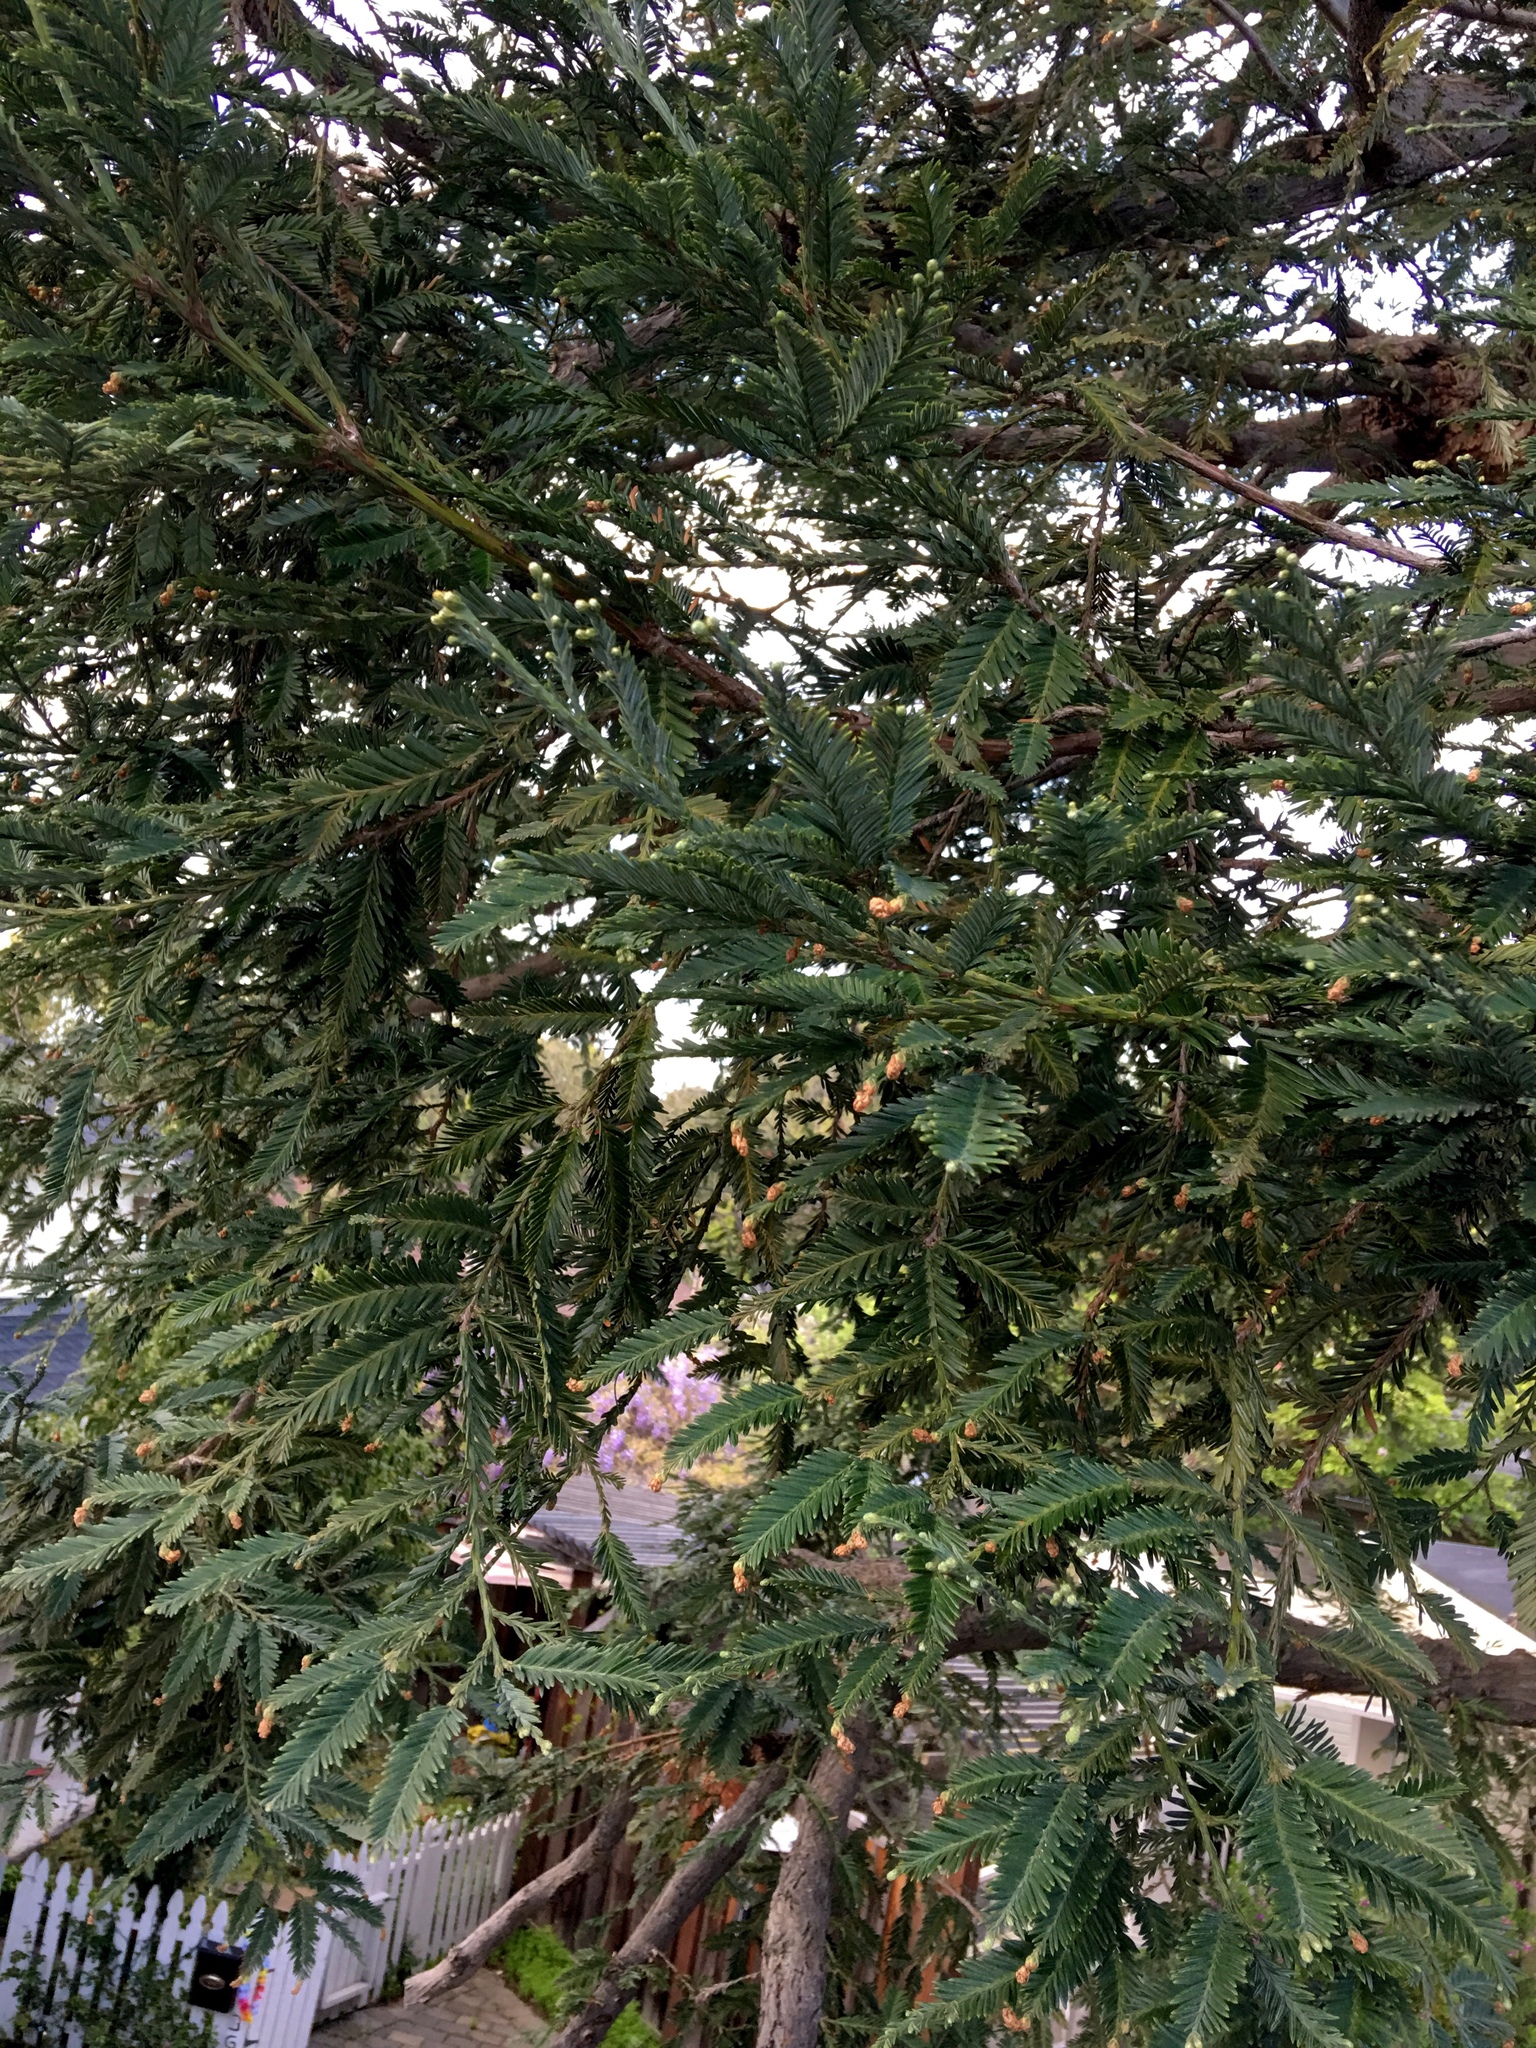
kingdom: Plantae
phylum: Tracheophyta
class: Pinopsida
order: Pinales
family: Cupressaceae
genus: Sequoia
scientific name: Sequoia sempervirens
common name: Coast redwood
